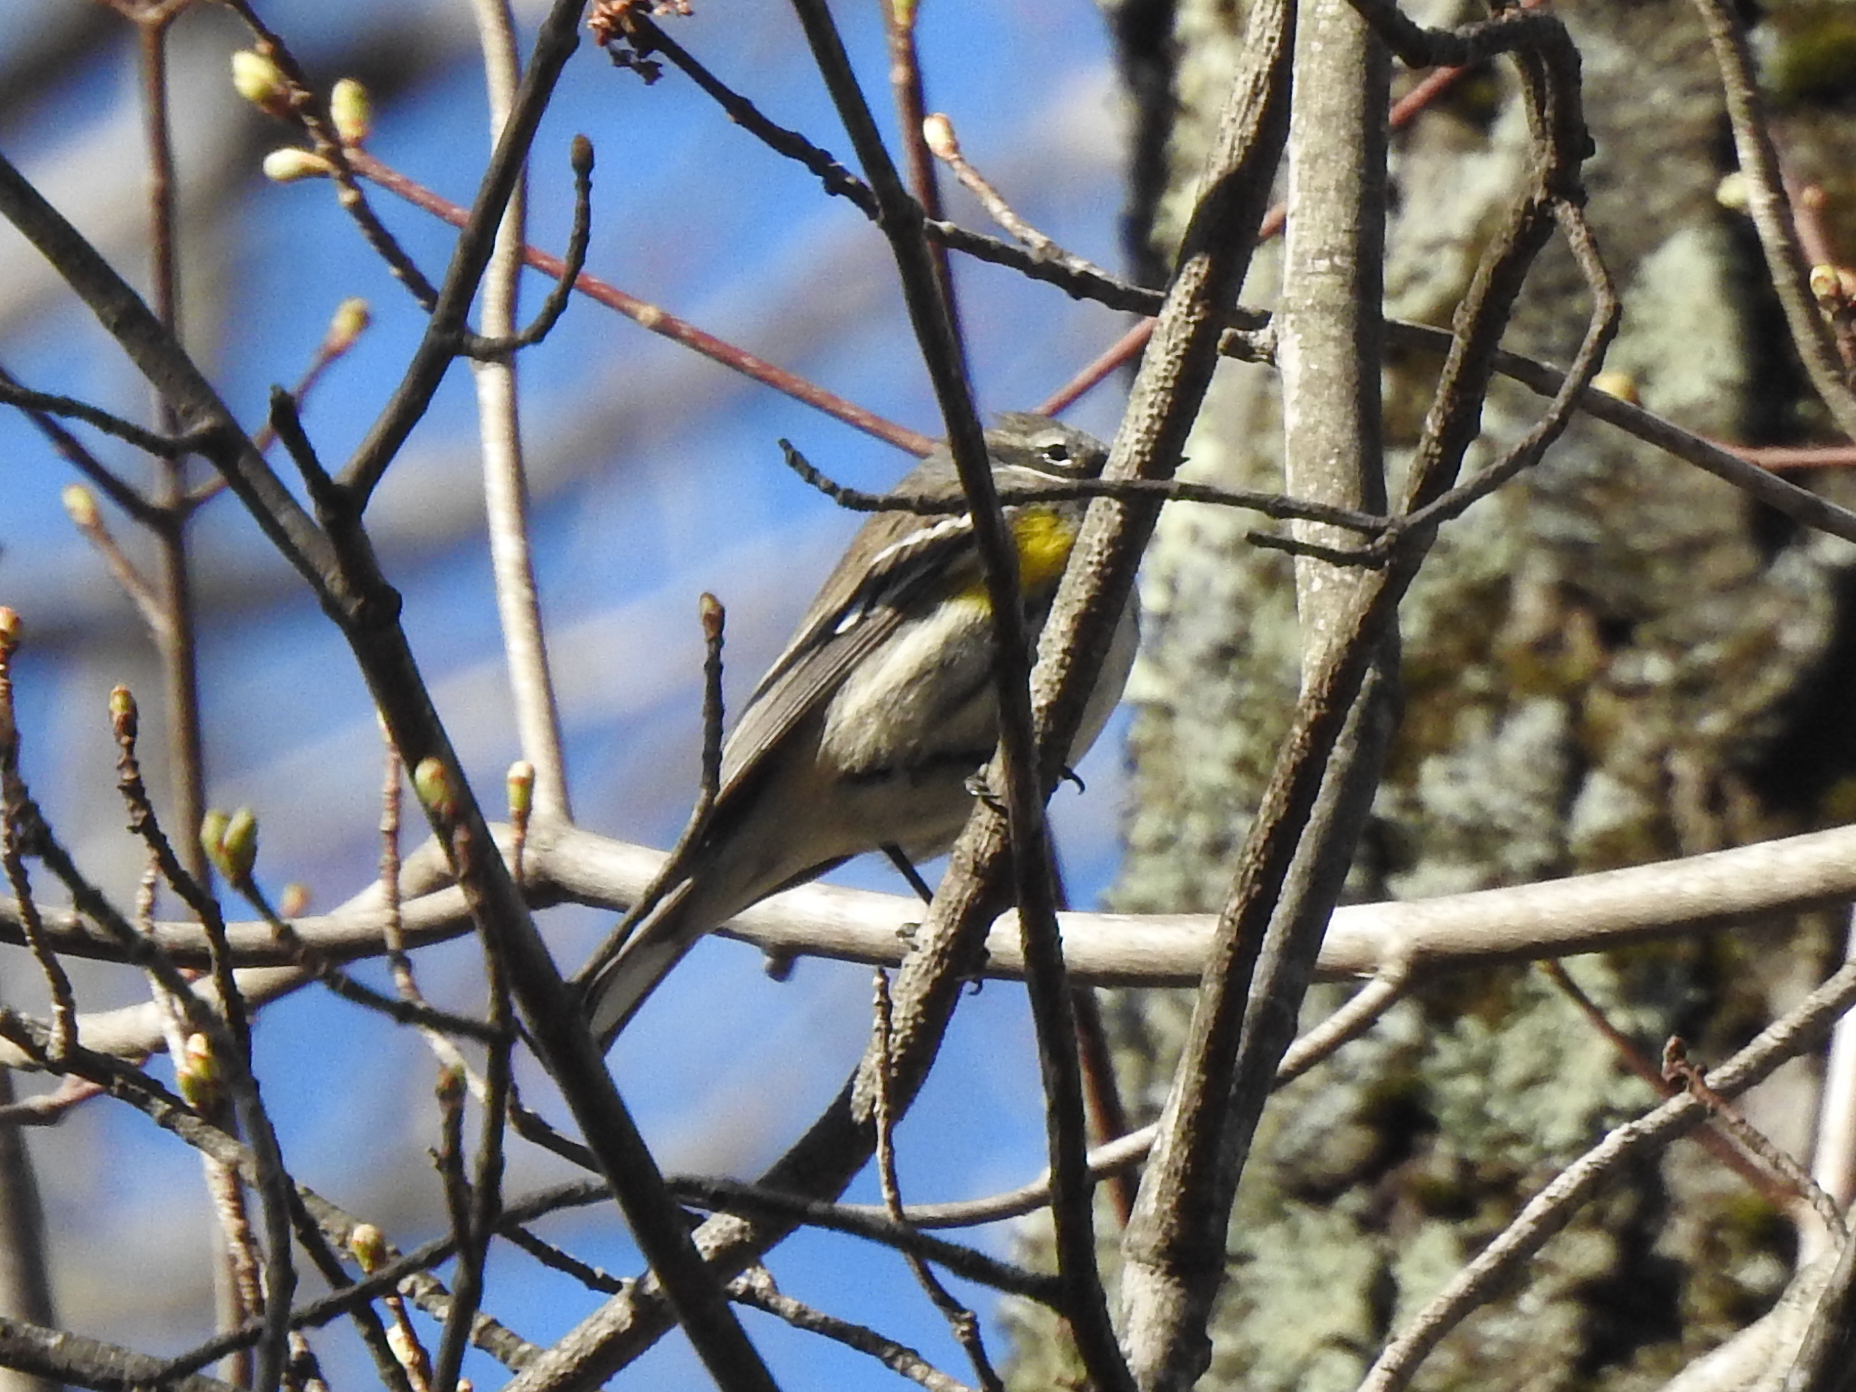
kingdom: Animalia
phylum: Chordata
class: Aves
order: Passeriformes
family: Parulidae
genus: Setophaga
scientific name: Setophaga coronata
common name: Myrtle warbler
